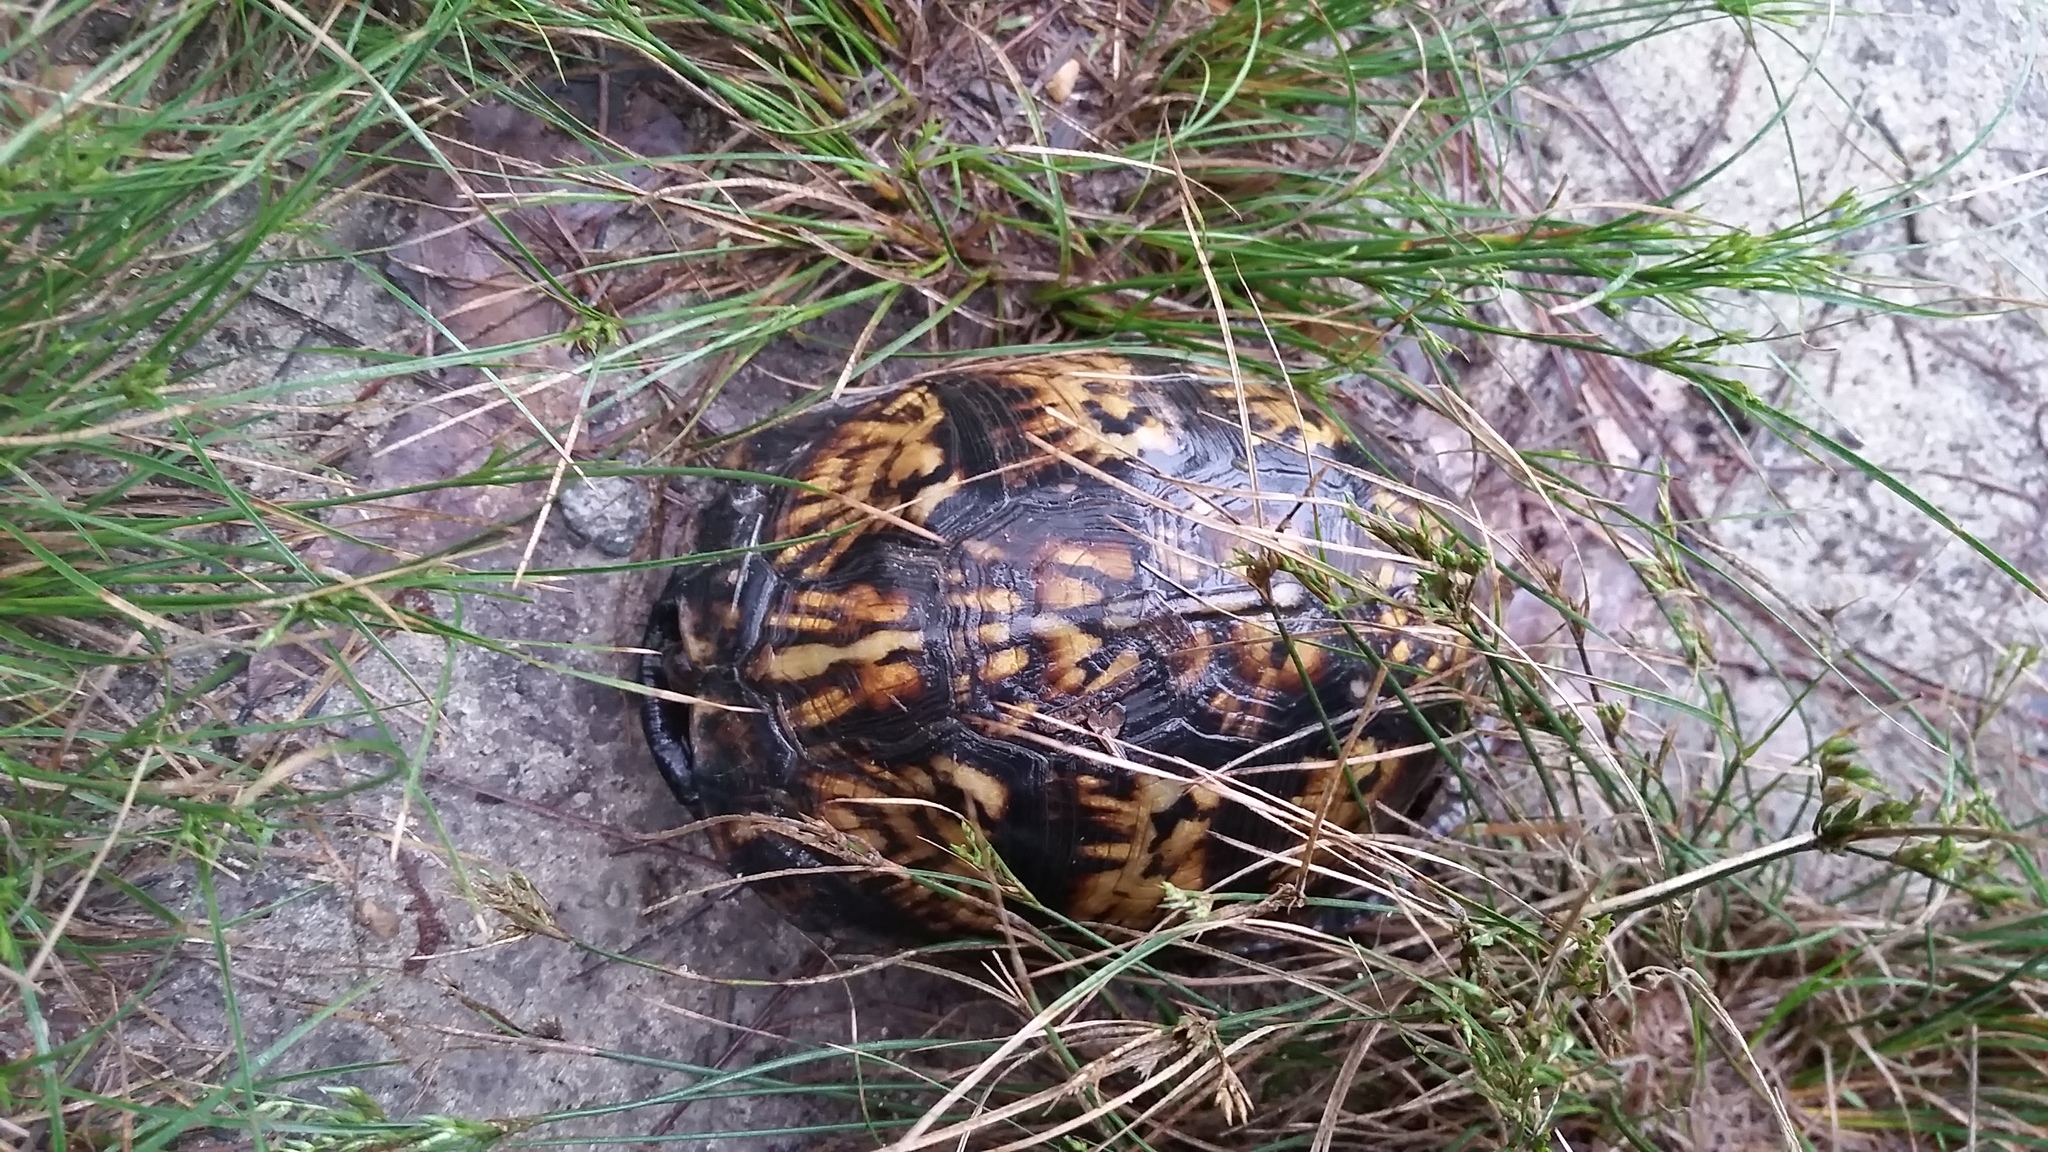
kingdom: Animalia
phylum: Chordata
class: Testudines
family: Emydidae
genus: Terrapene
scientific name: Terrapene carolina
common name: Common box turtle
